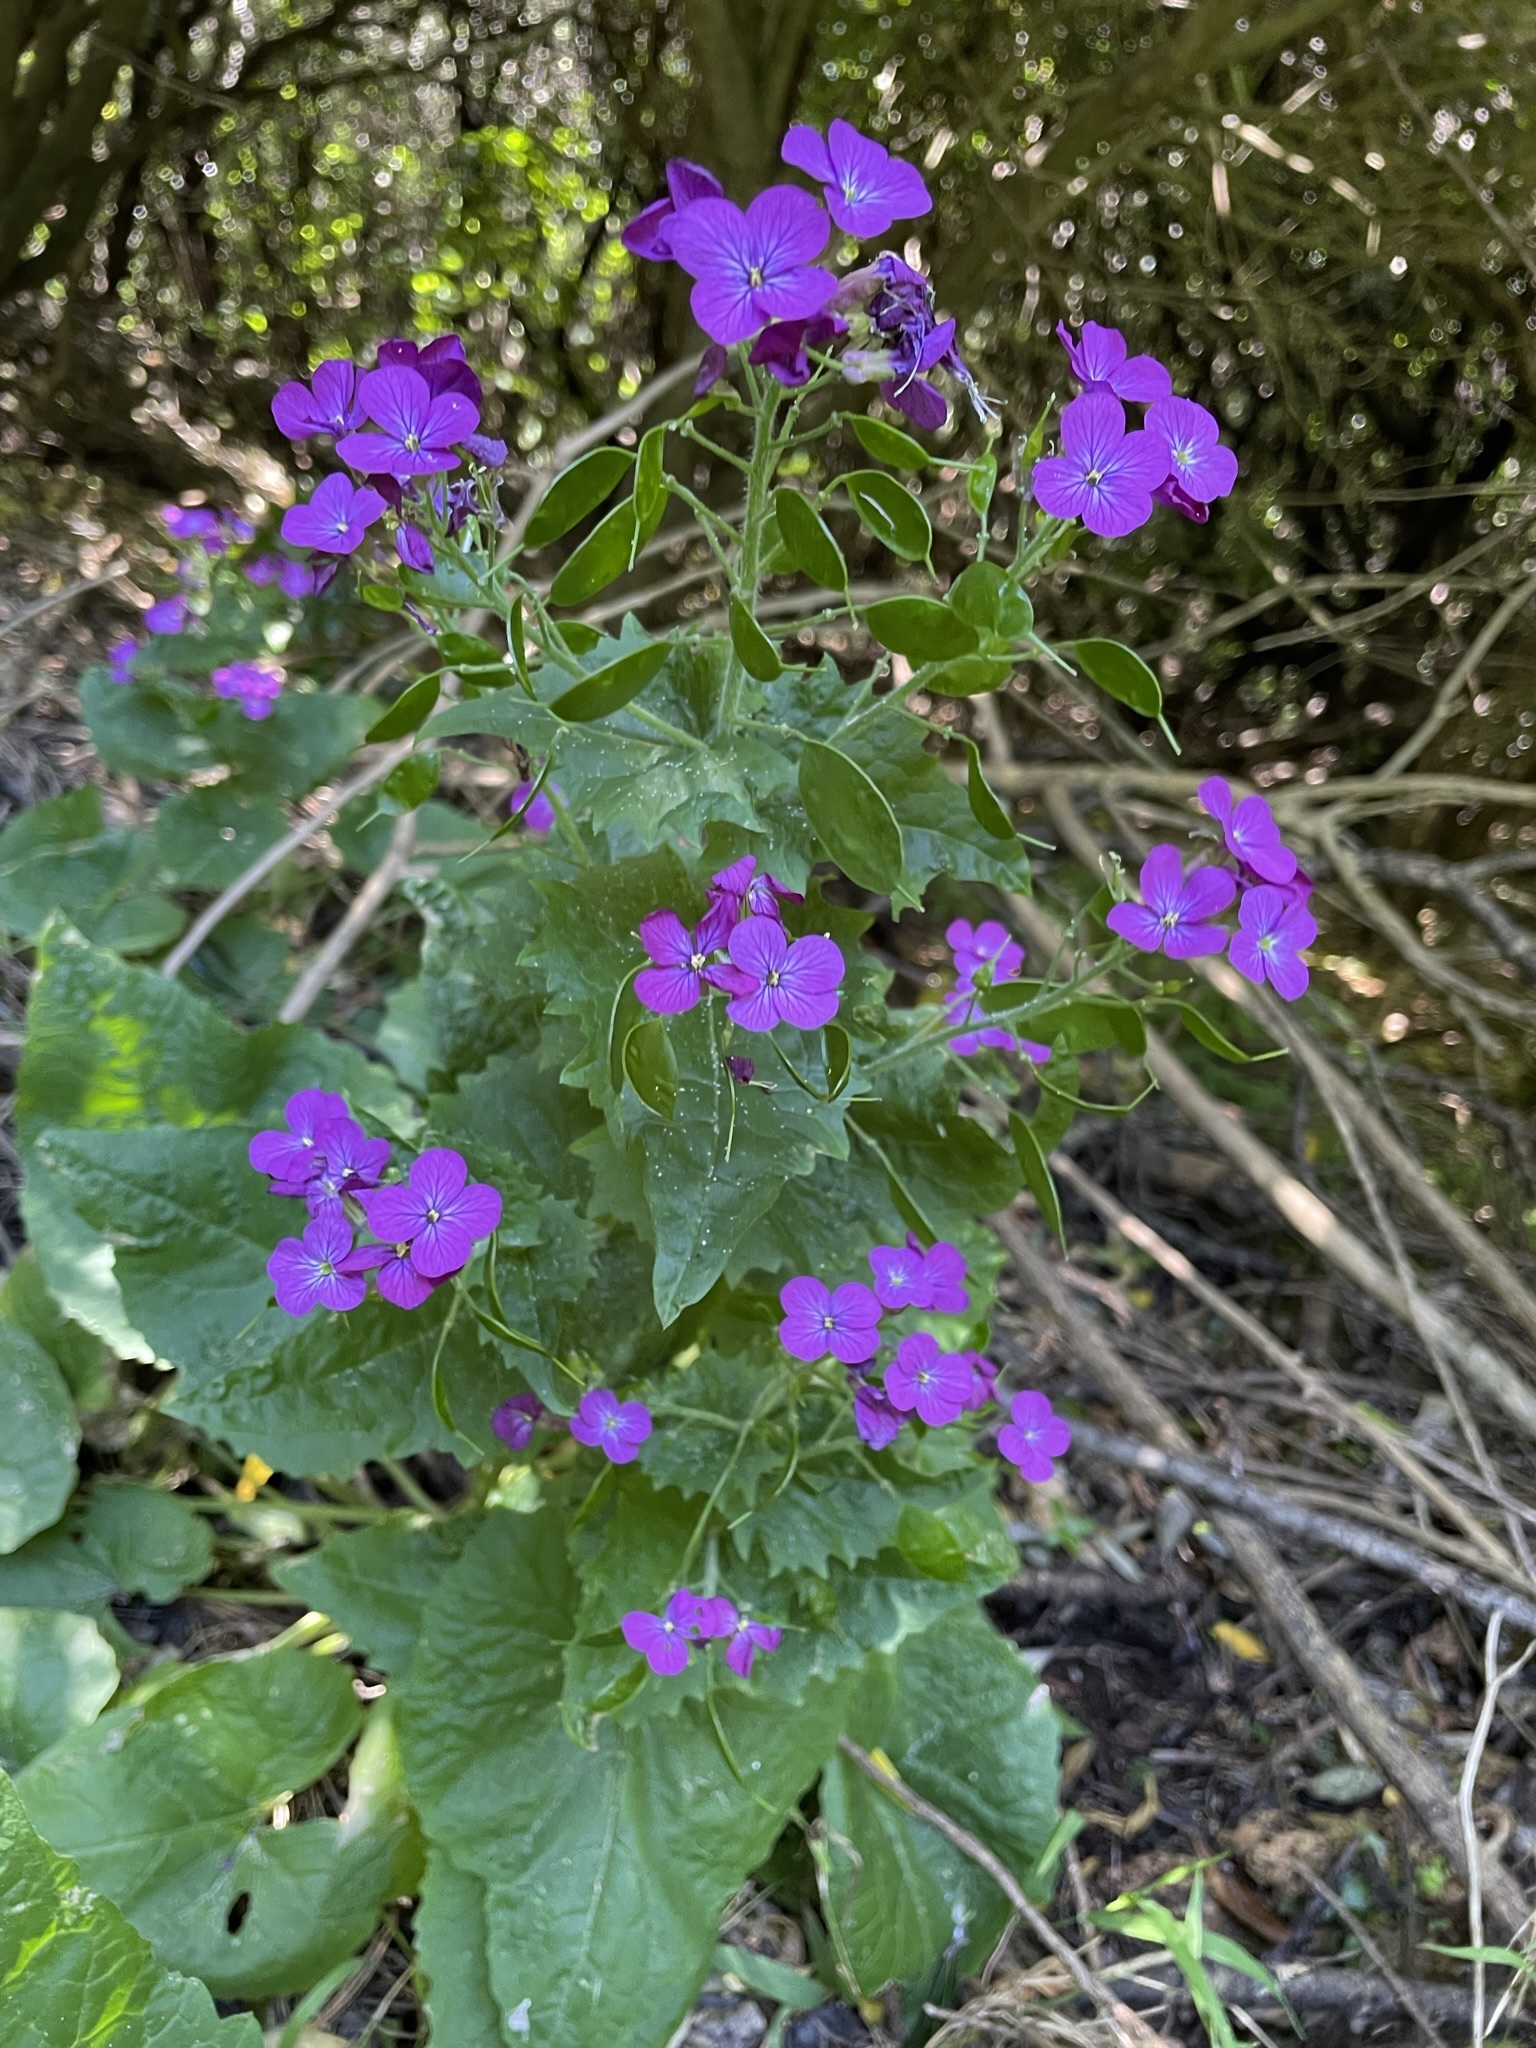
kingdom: Plantae
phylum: Tracheophyta
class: Magnoliopsida
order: Brassicales
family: Brassicaceae
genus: Lunaria
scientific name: Lunaria annua
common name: Honesty
